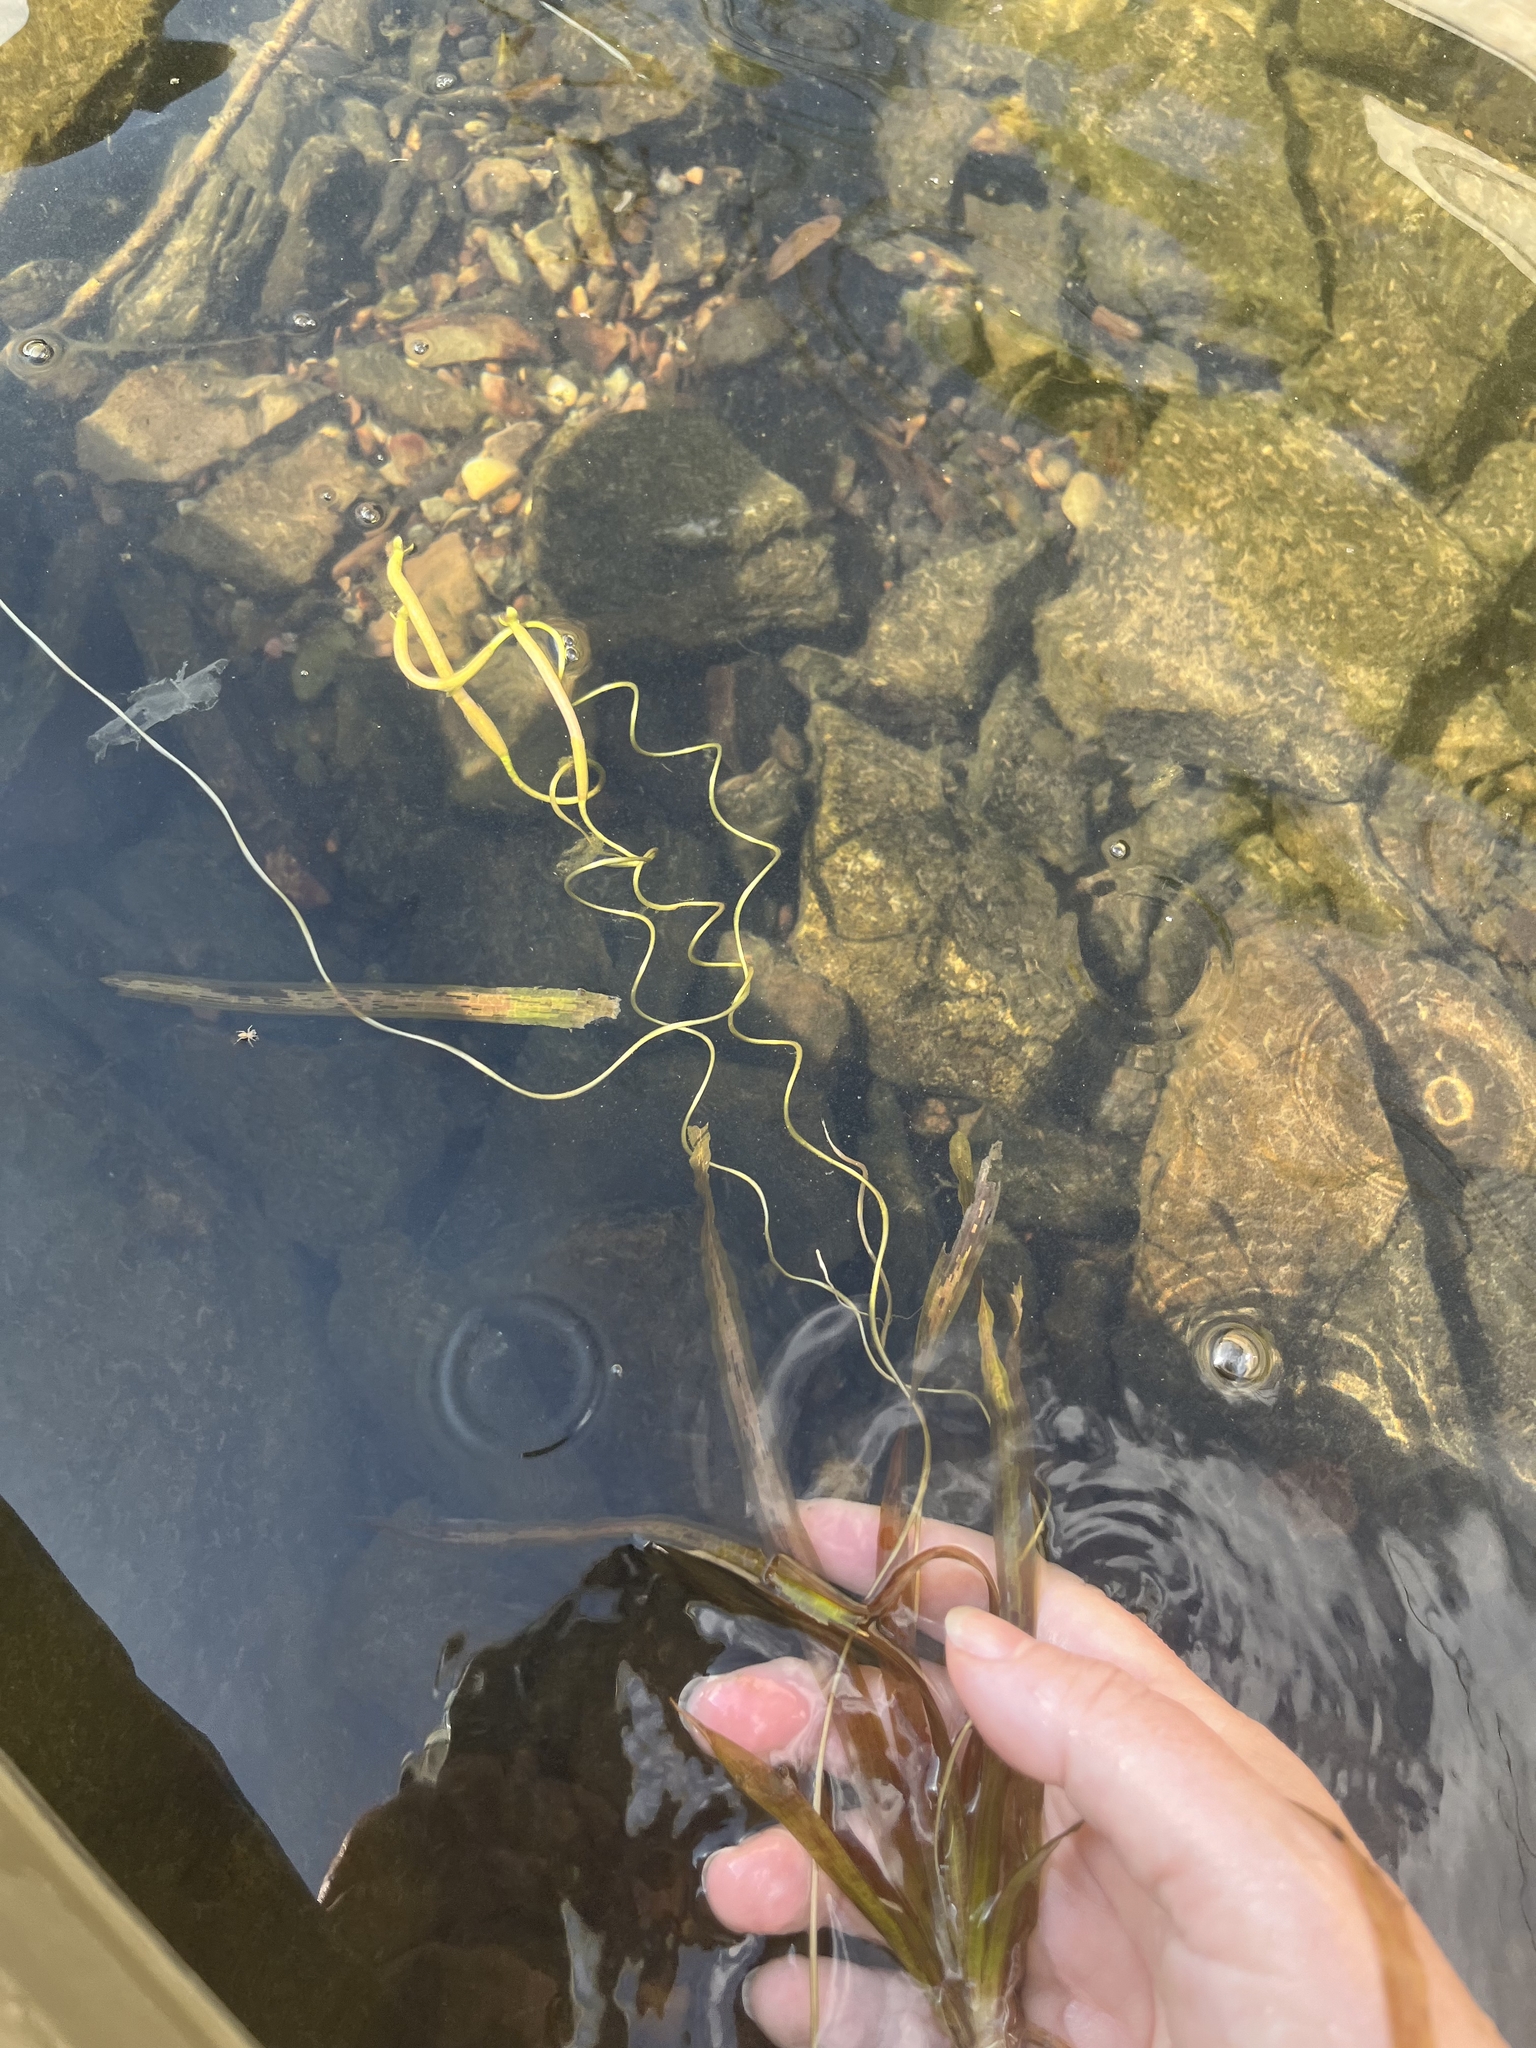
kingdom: Plantae
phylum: Tracheophyta
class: Liliopsida
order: Alismatales
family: Hydrocharitaceae
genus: Vallisneria
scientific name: Vallisneria americana
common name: American eelgrass
